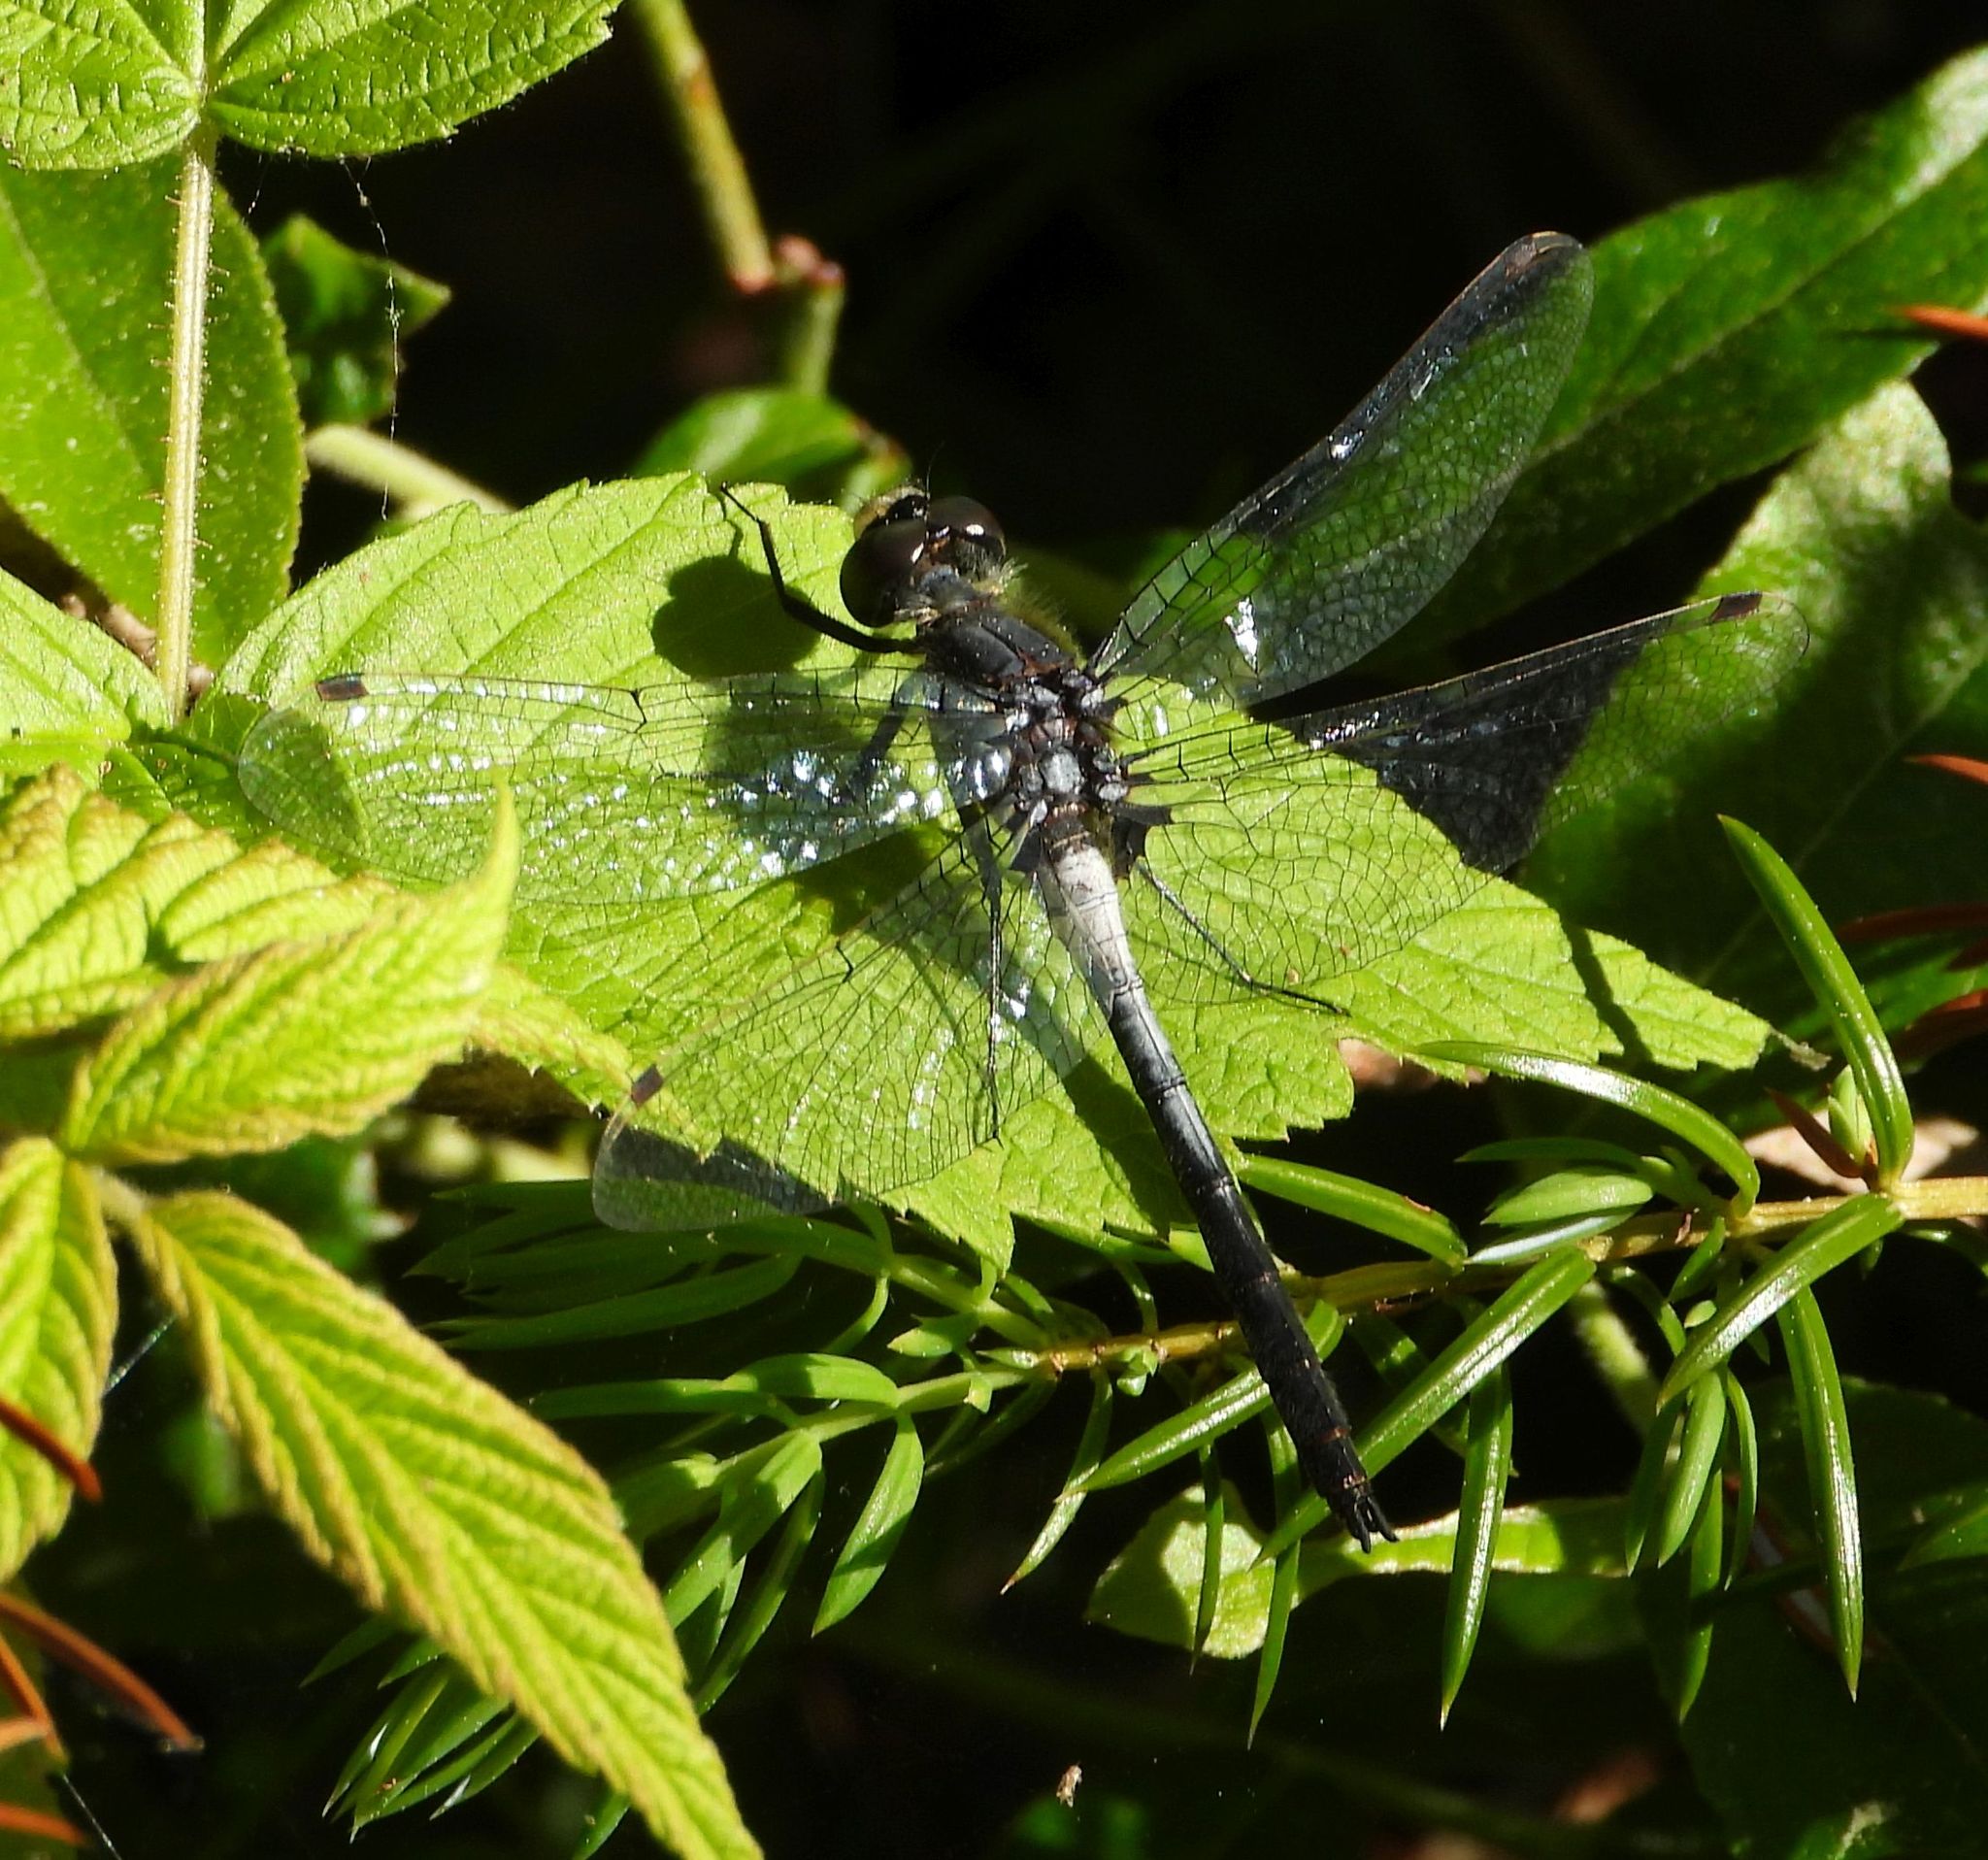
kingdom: Animalia
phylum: Arthropoda
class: Insecta
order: Odonata
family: Libellulidae
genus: Leucorrhinia
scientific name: Leucorrhinia proxima
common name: Belted whiteface
